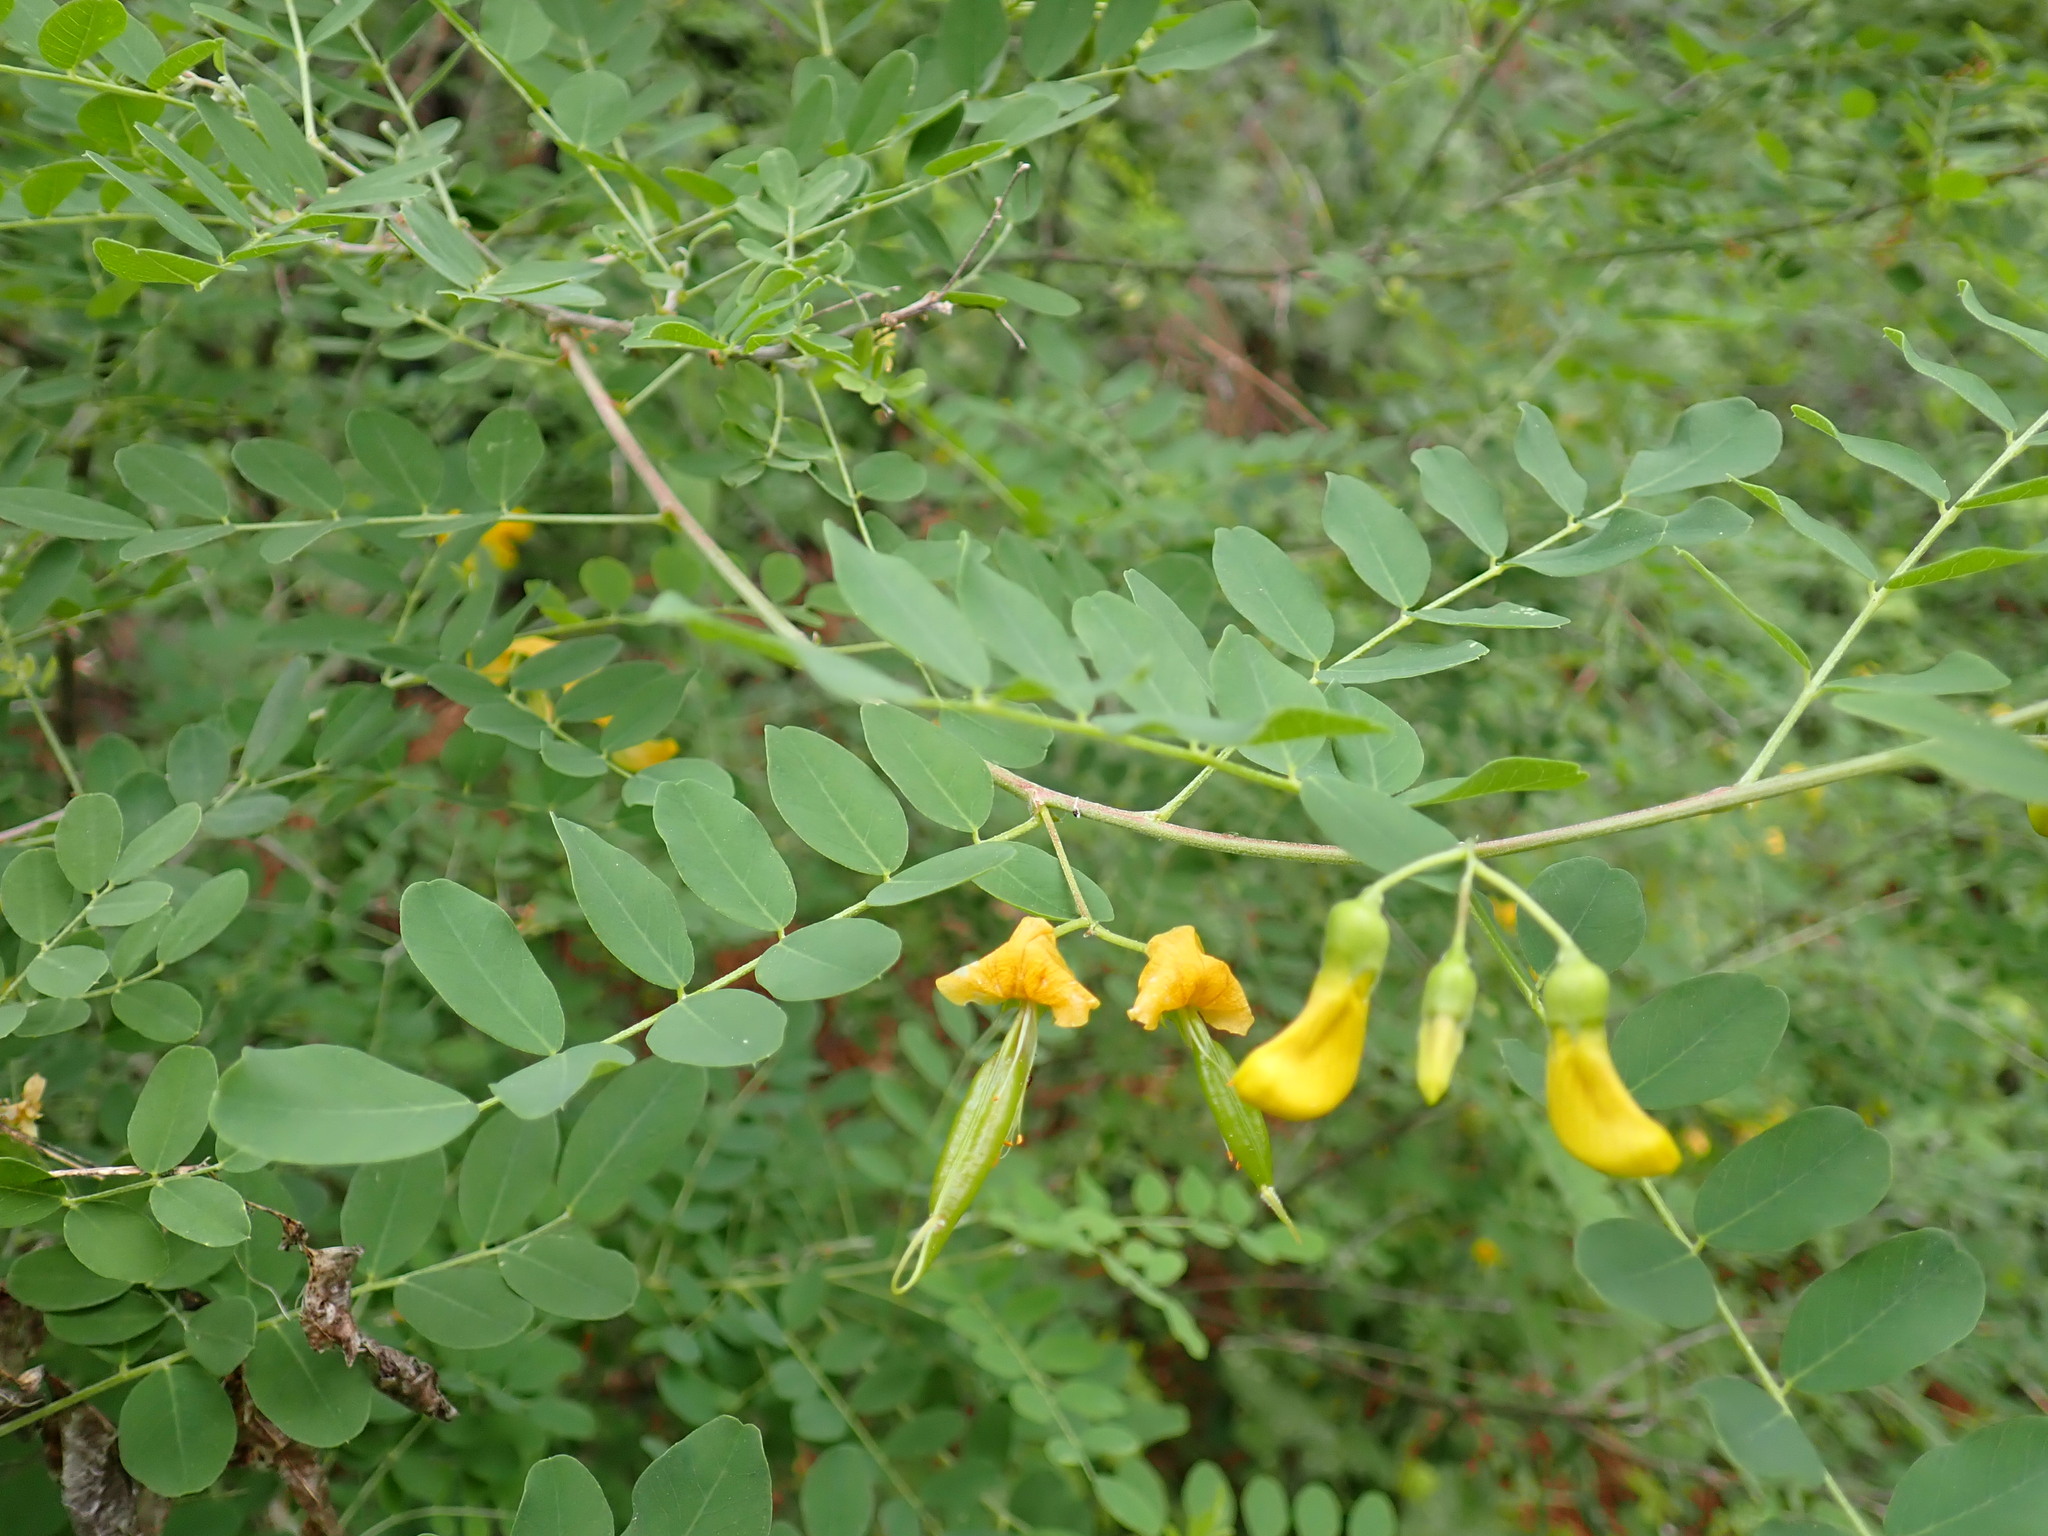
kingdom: Plantae
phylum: Tracheophyta
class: Magnoliopsida
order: Fabales
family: Fabaceae
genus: Colutea
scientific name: Colutea arborescens
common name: Bladder-senna
